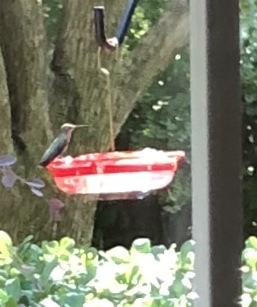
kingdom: Animalia
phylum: Chordata
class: Aves
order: Apodiformes
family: Trochilidae
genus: Archilochus
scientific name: Archilochus
